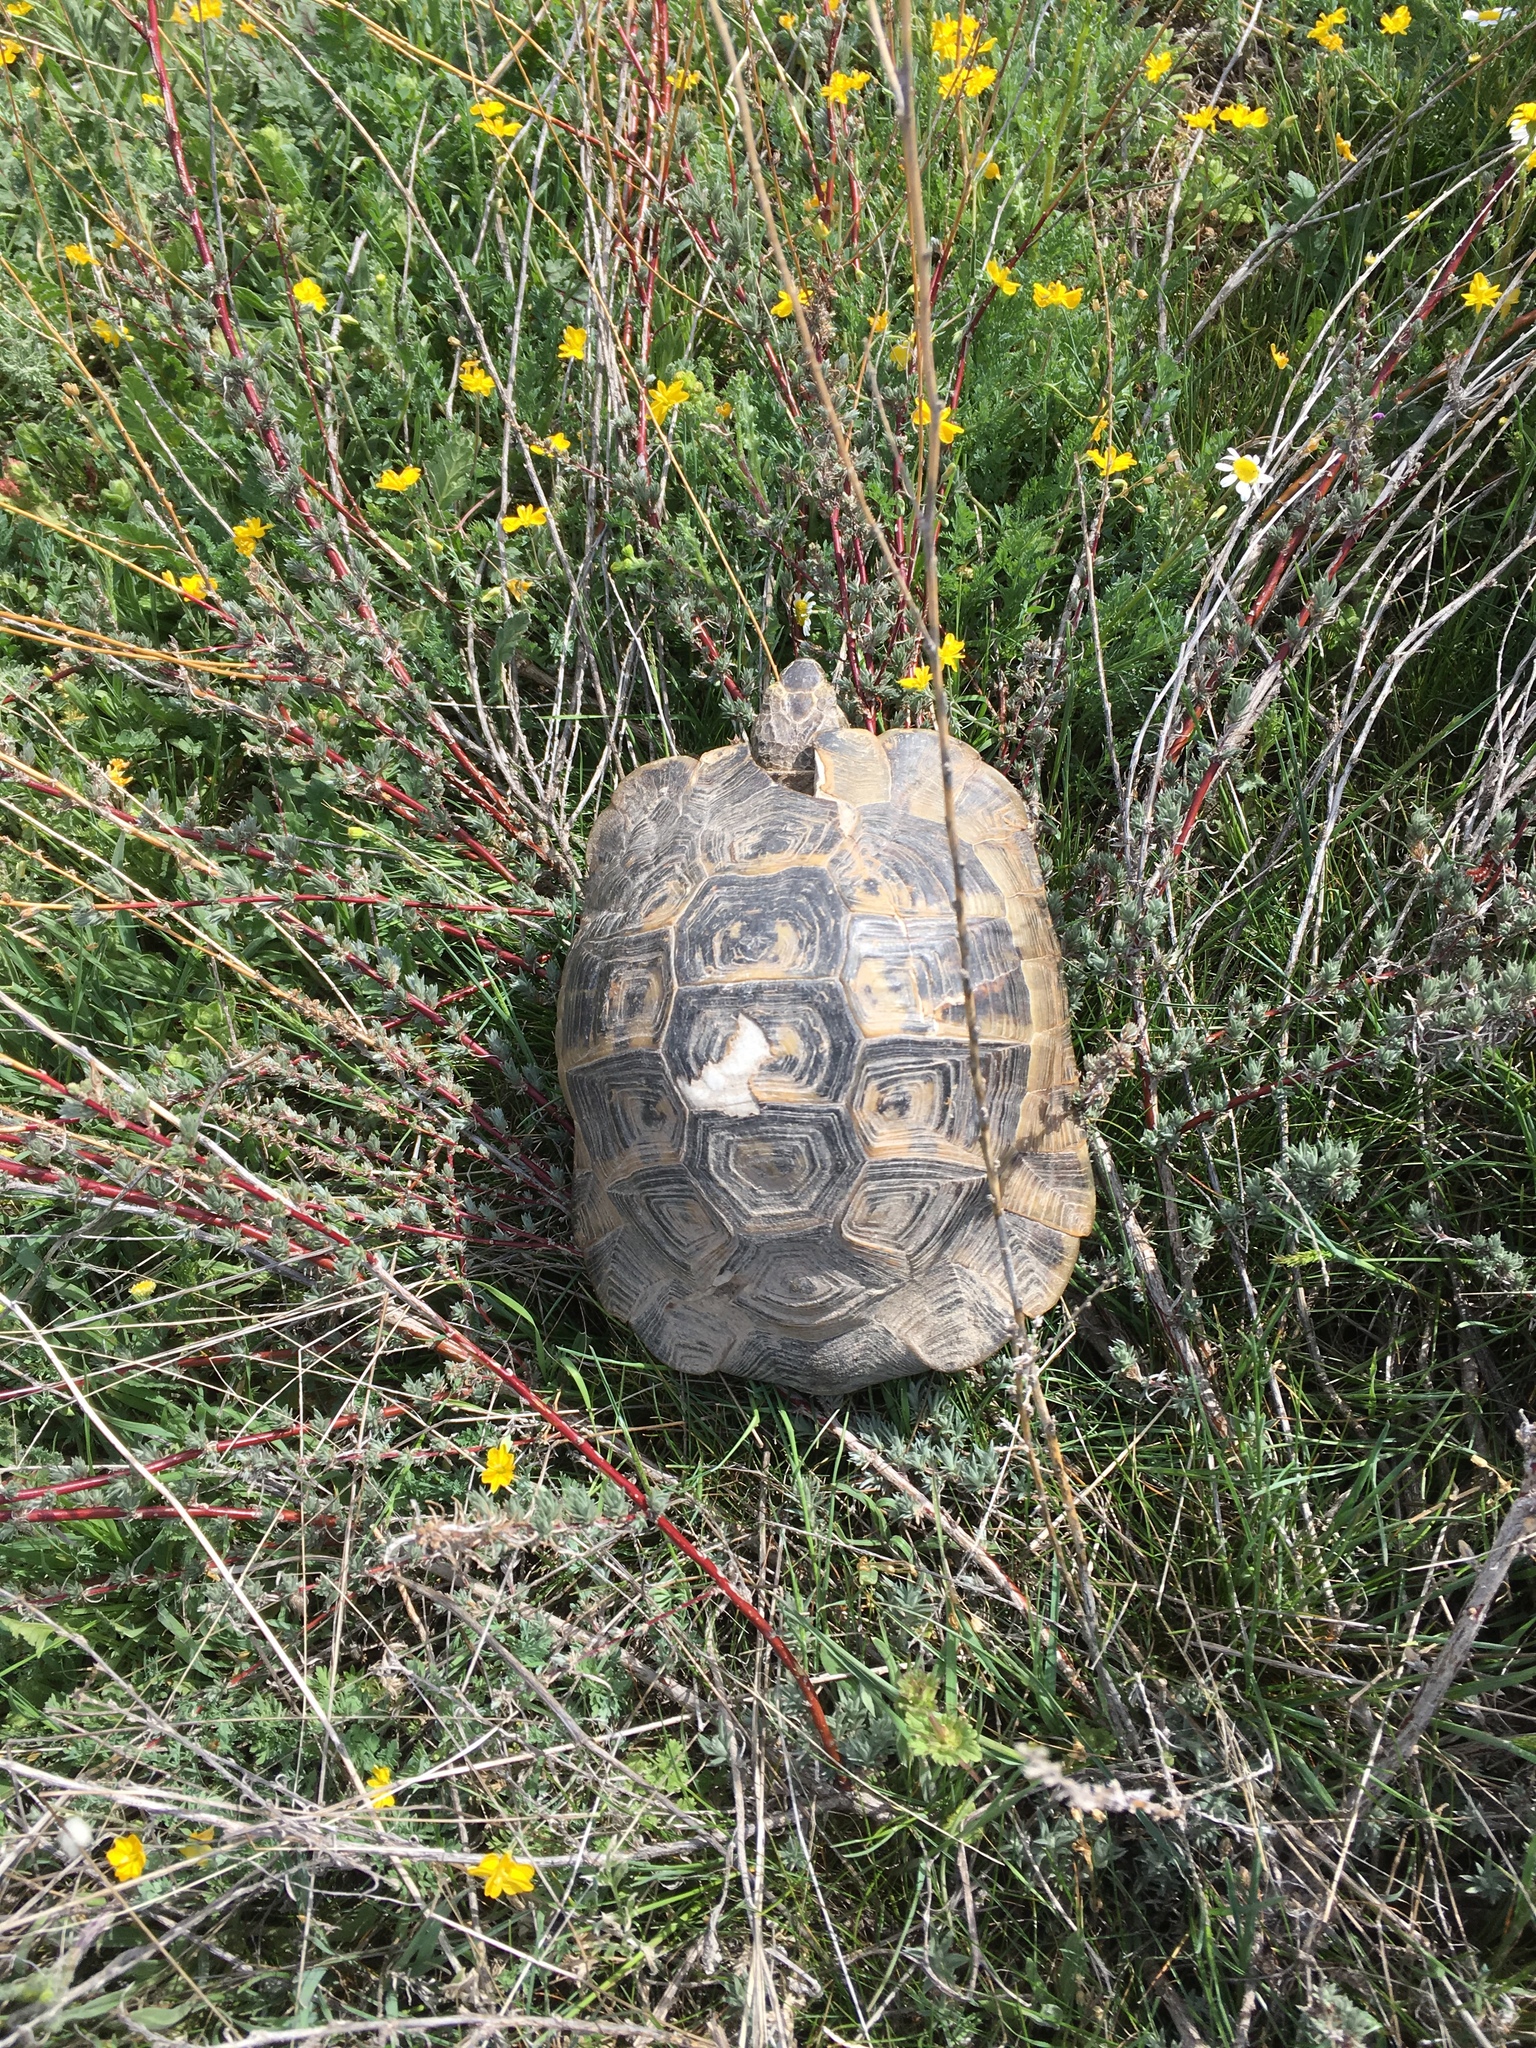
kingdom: Animalia
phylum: Chordata
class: Testudines
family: Testudinidae
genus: Testudo
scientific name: Testudo graeca
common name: Common tortoise
